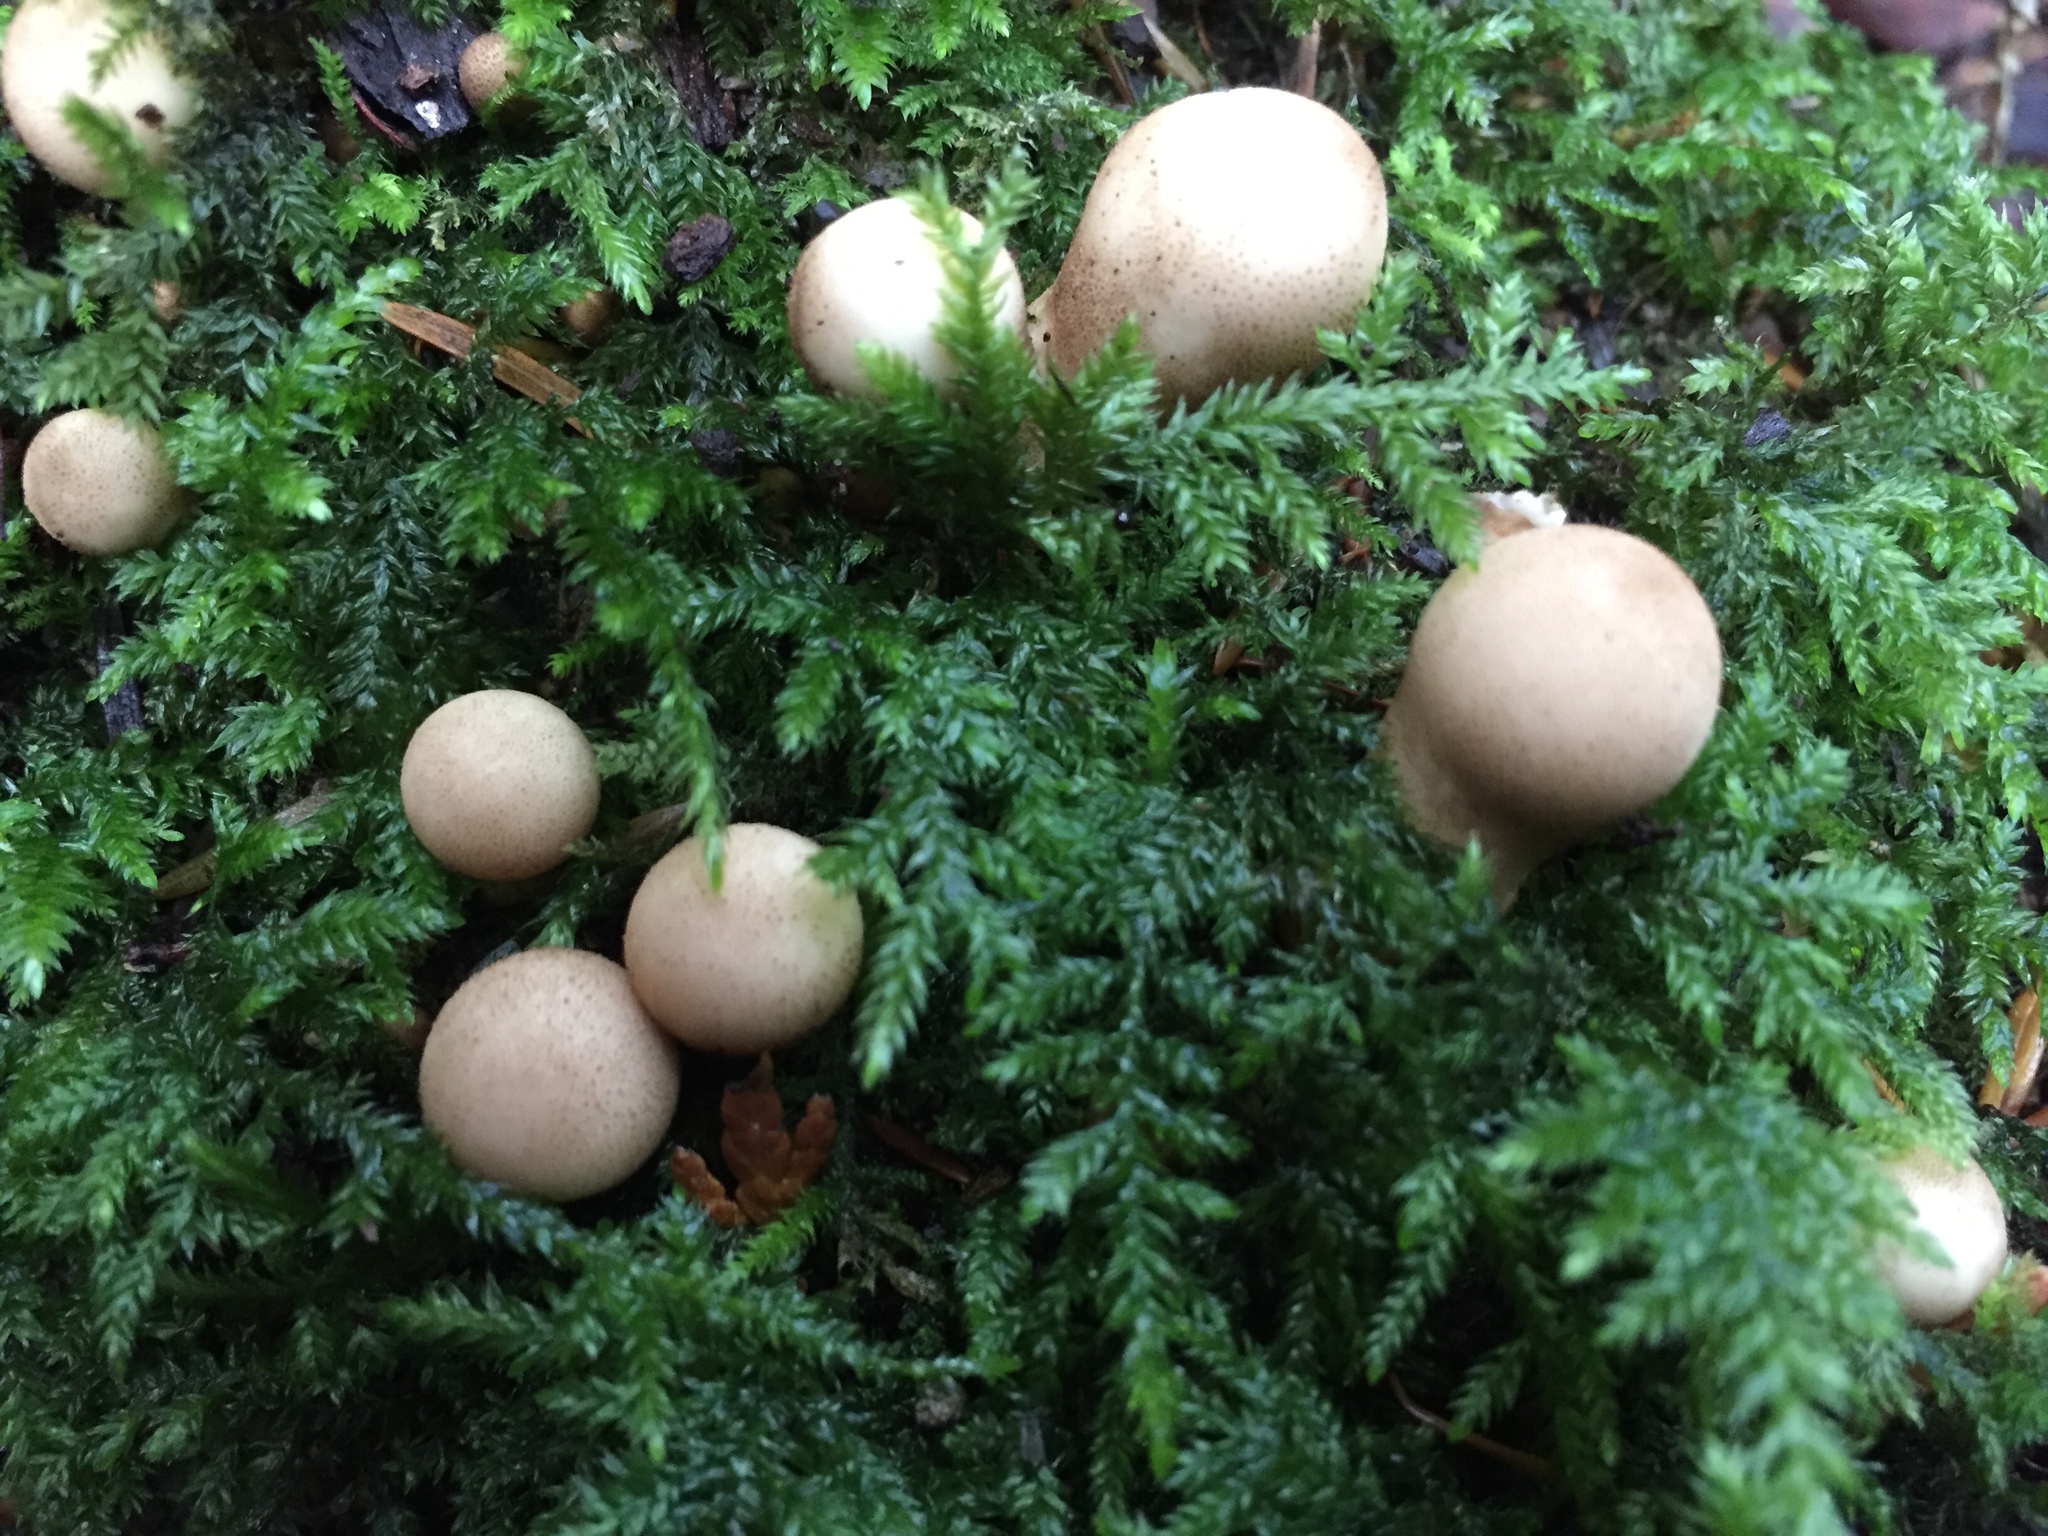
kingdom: Fungi
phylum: Basidiomycota
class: Agaricomycetes
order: Agaricales
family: Lycoperdaceae
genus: Apioperdon
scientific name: Apioperdon pyriforme
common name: Pear-shaped puffball
